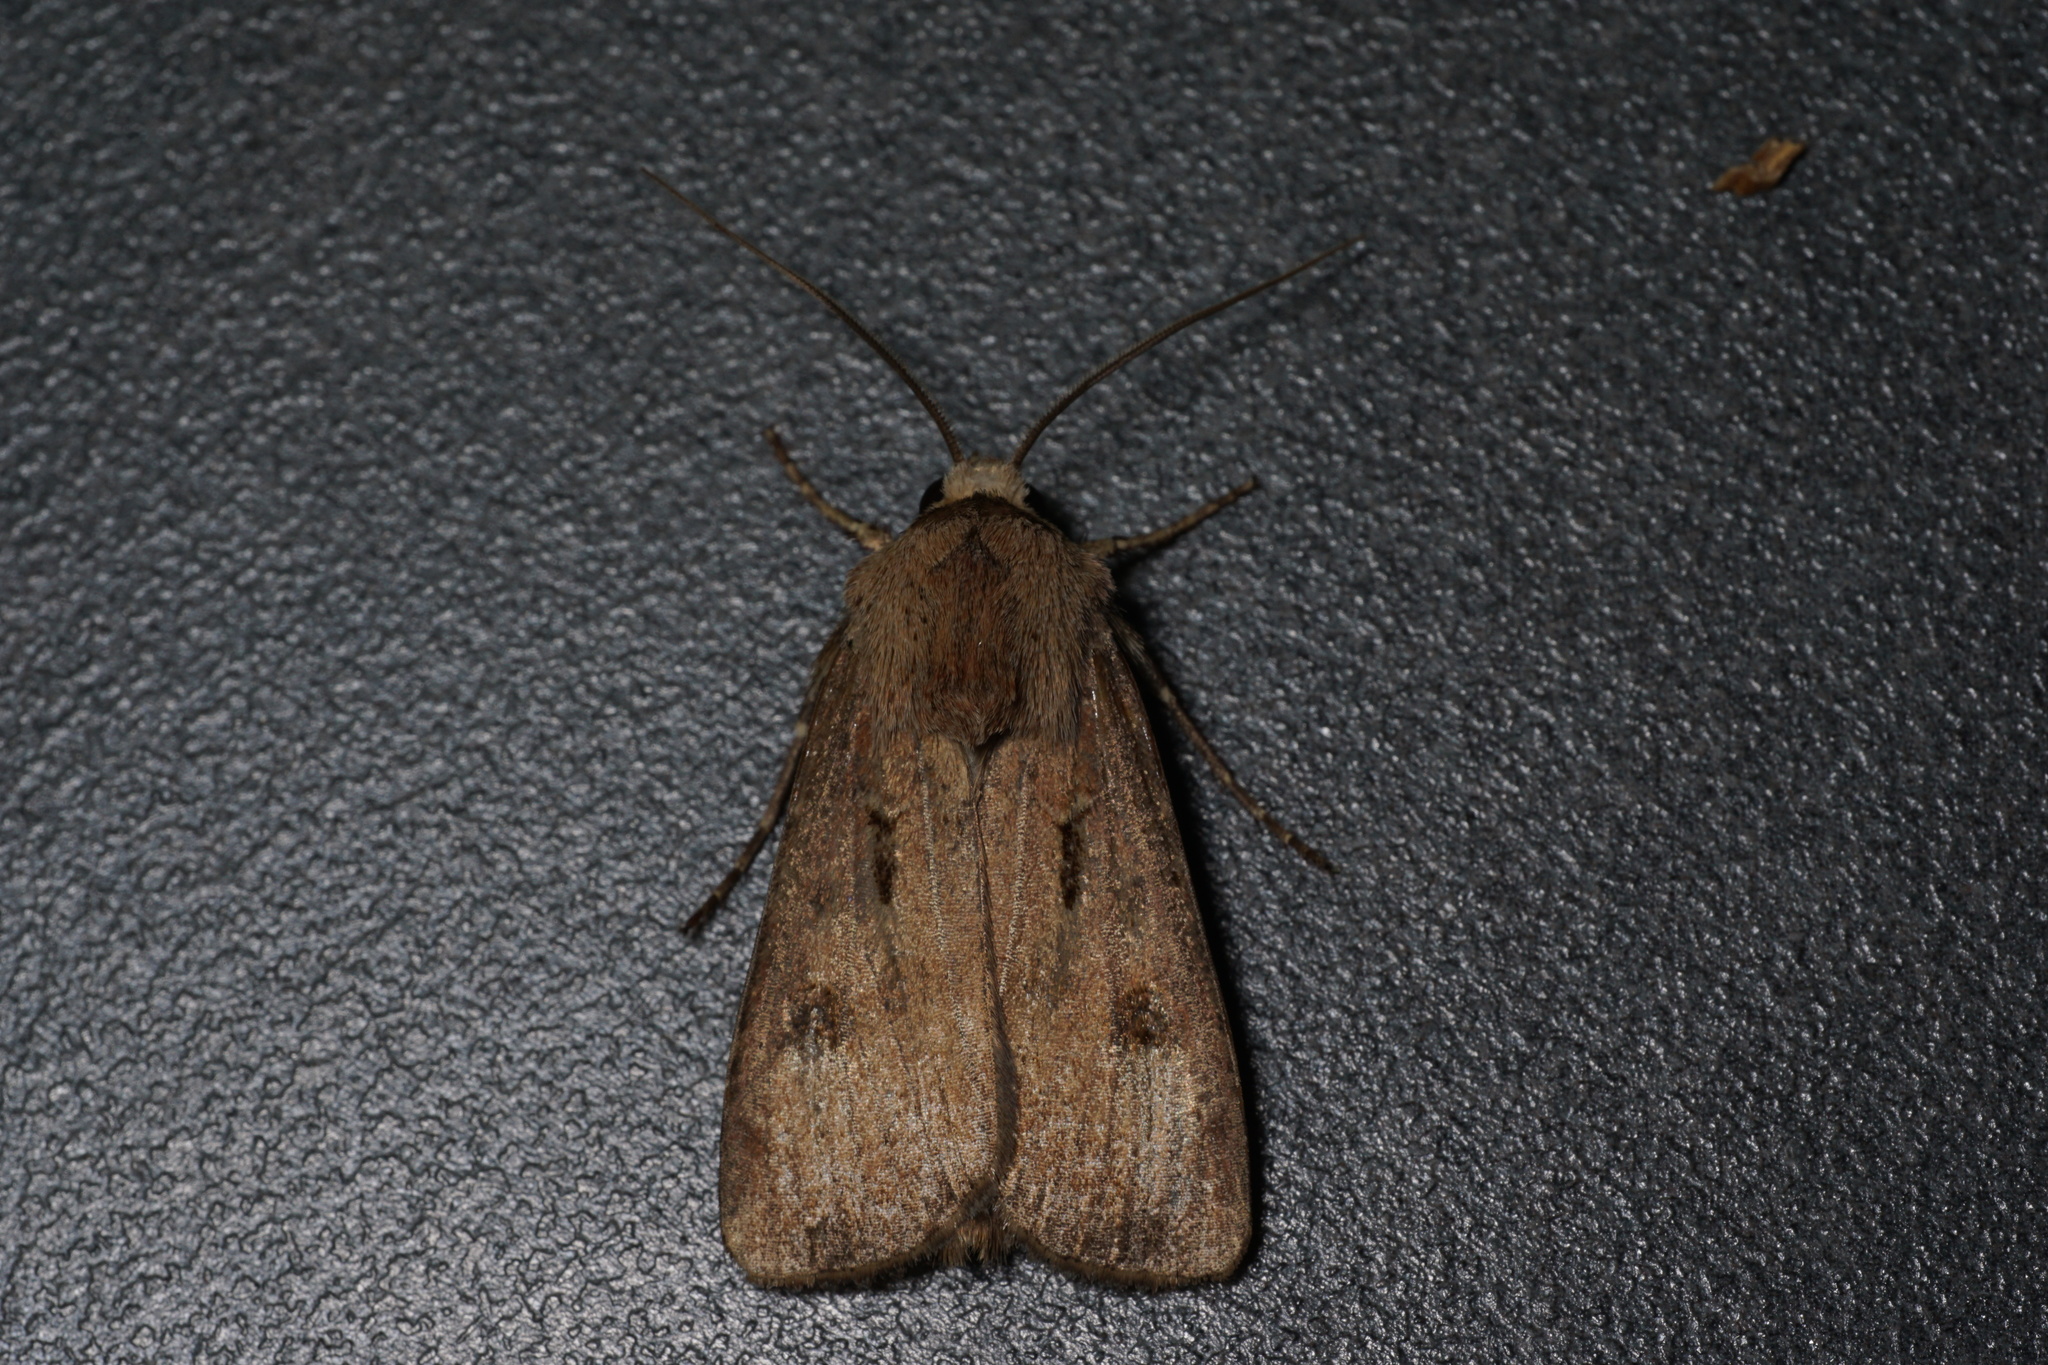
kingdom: Animalia
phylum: Arthropoda
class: Insecta
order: Lepidoptera
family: Noctuidae
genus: Agrotis
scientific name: Agrotis exclamationis
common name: Heart and dart
